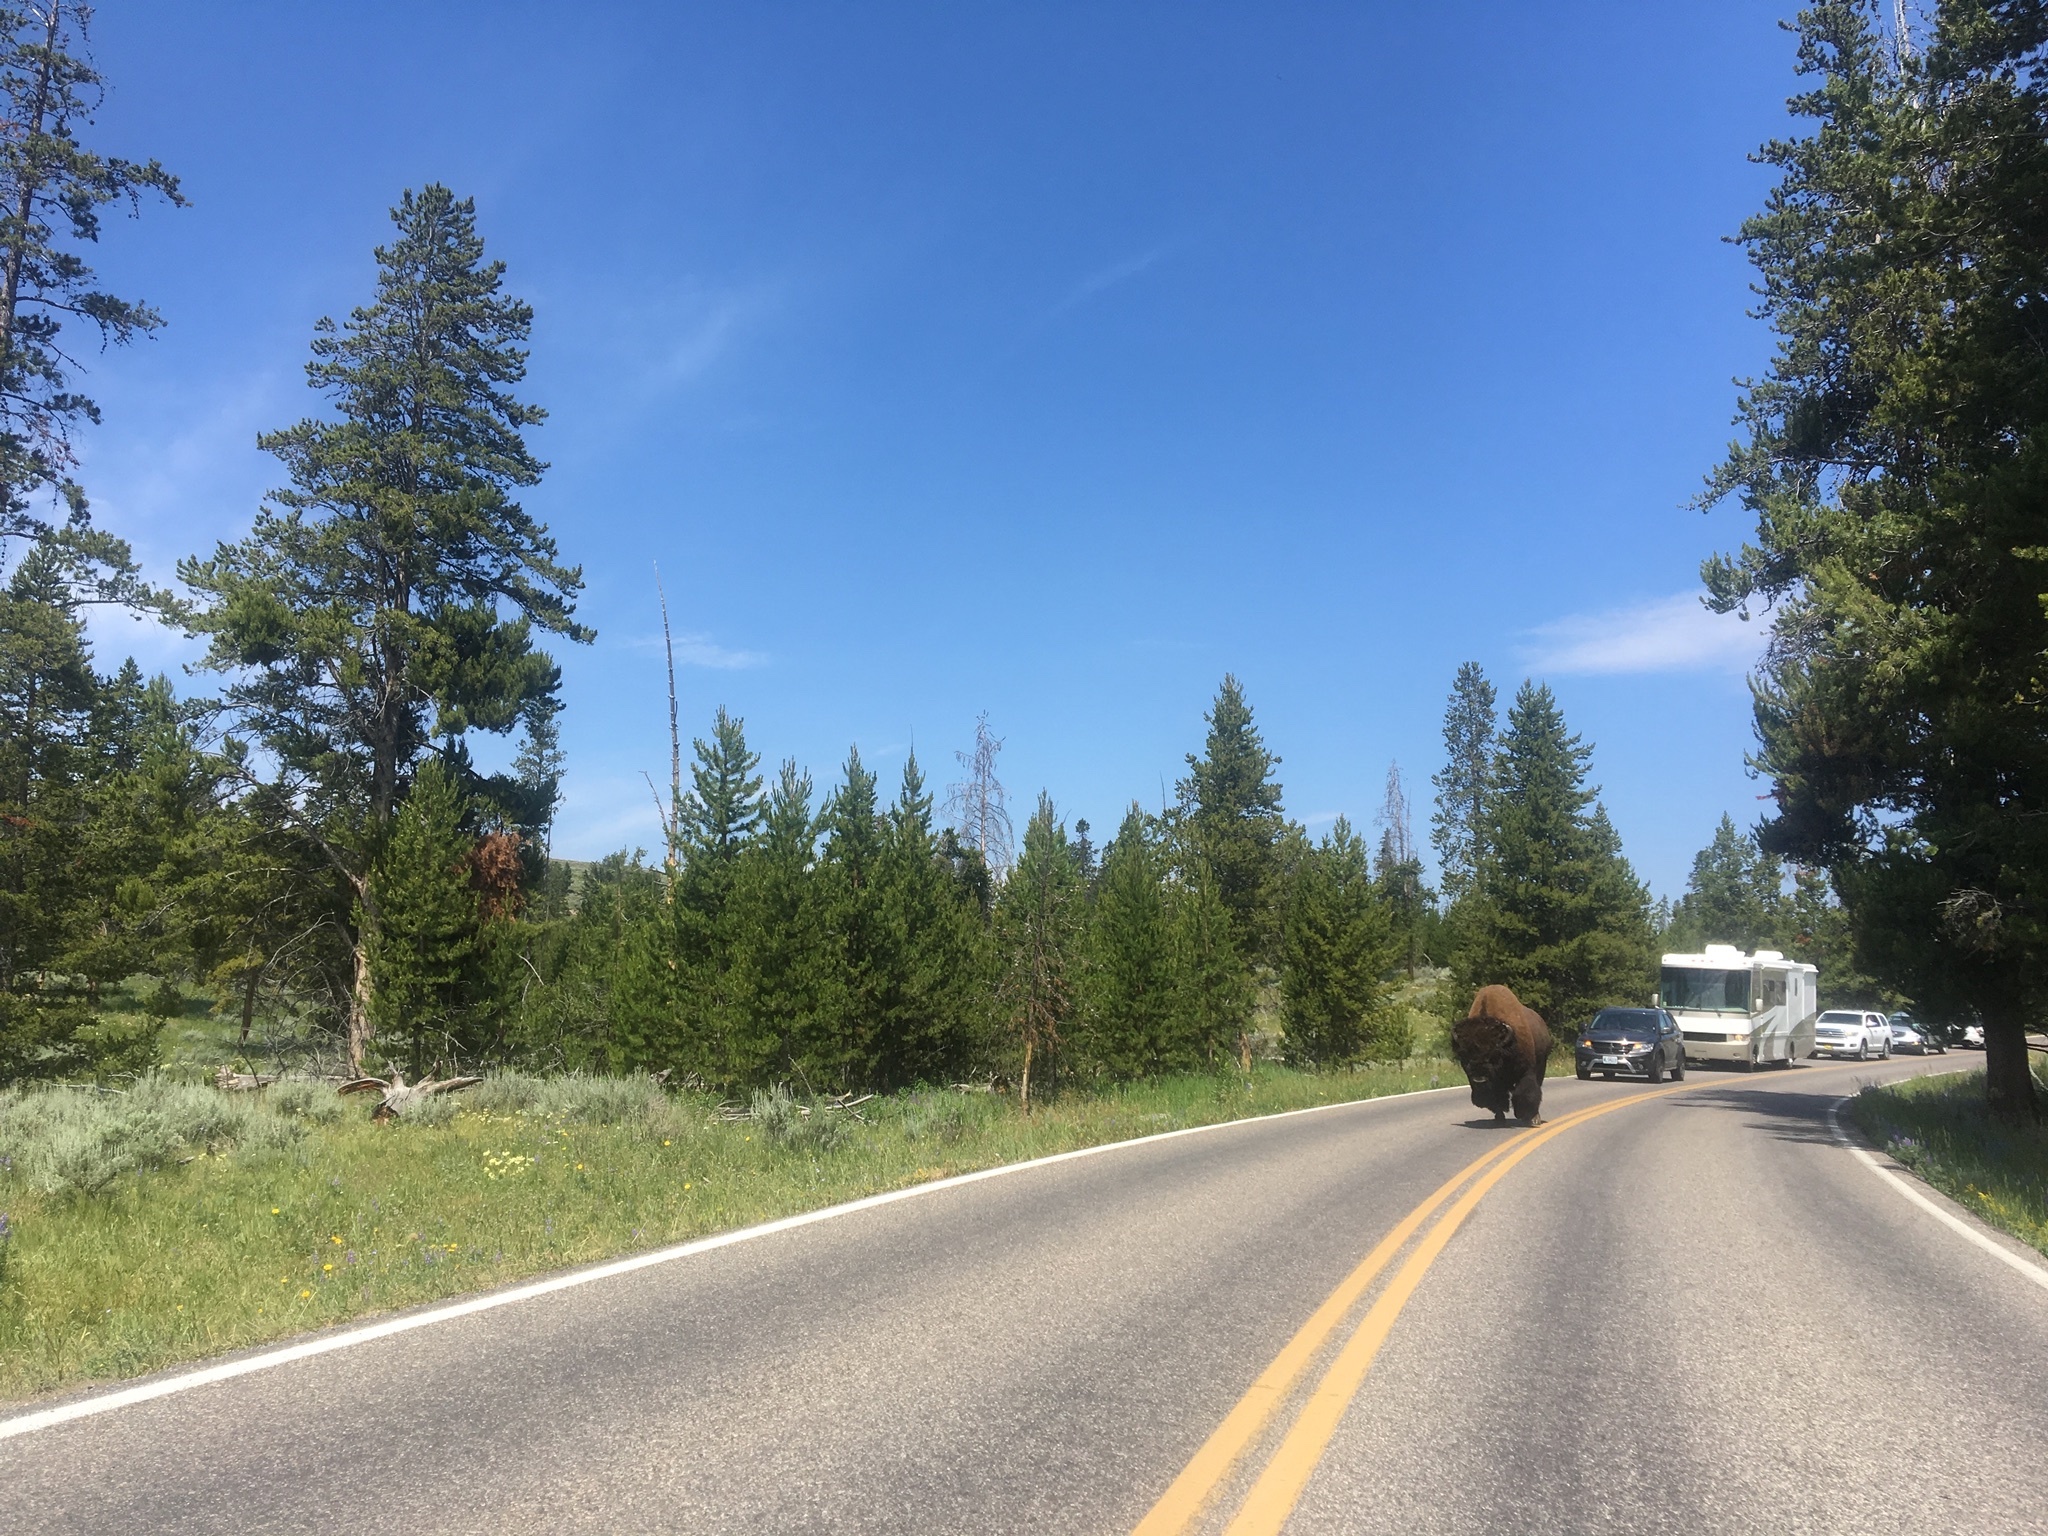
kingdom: Animalia
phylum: Chordata
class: Mammalia
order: Artiodactyla
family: Bovidae
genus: Bison
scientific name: Bison bison
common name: American bison
